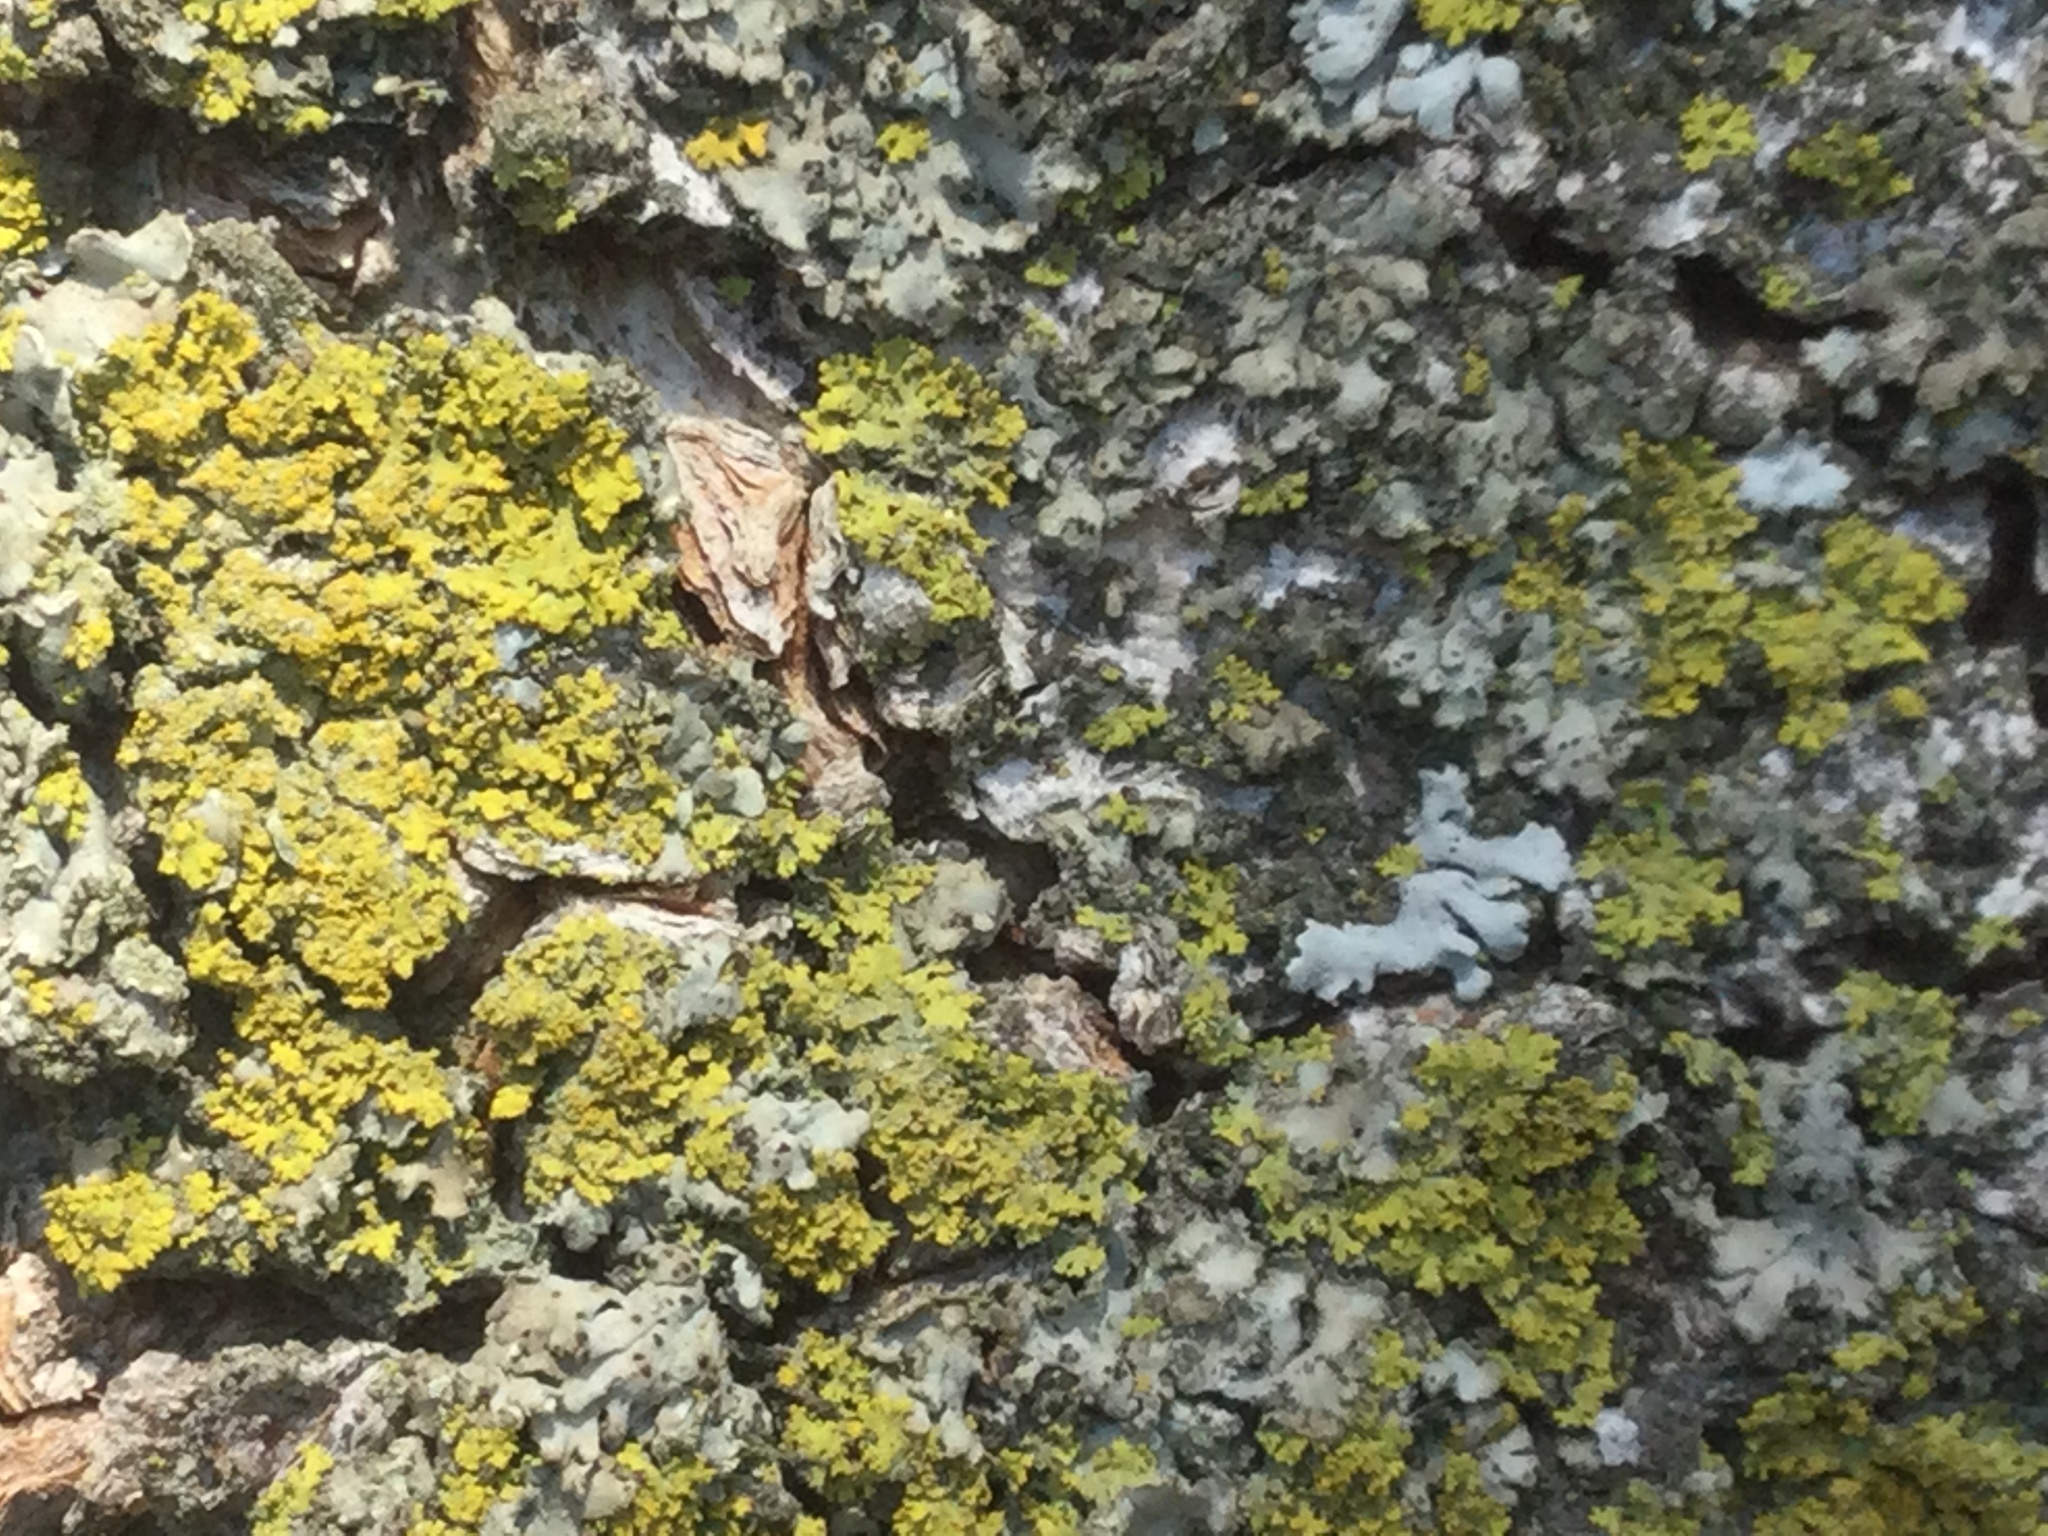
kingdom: Fungi
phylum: Ascomycota
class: Candelariomycetes
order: Candelariales
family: Candelariaceae
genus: Candelaria
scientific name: Candelaria concolor
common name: Candleflame lichen
